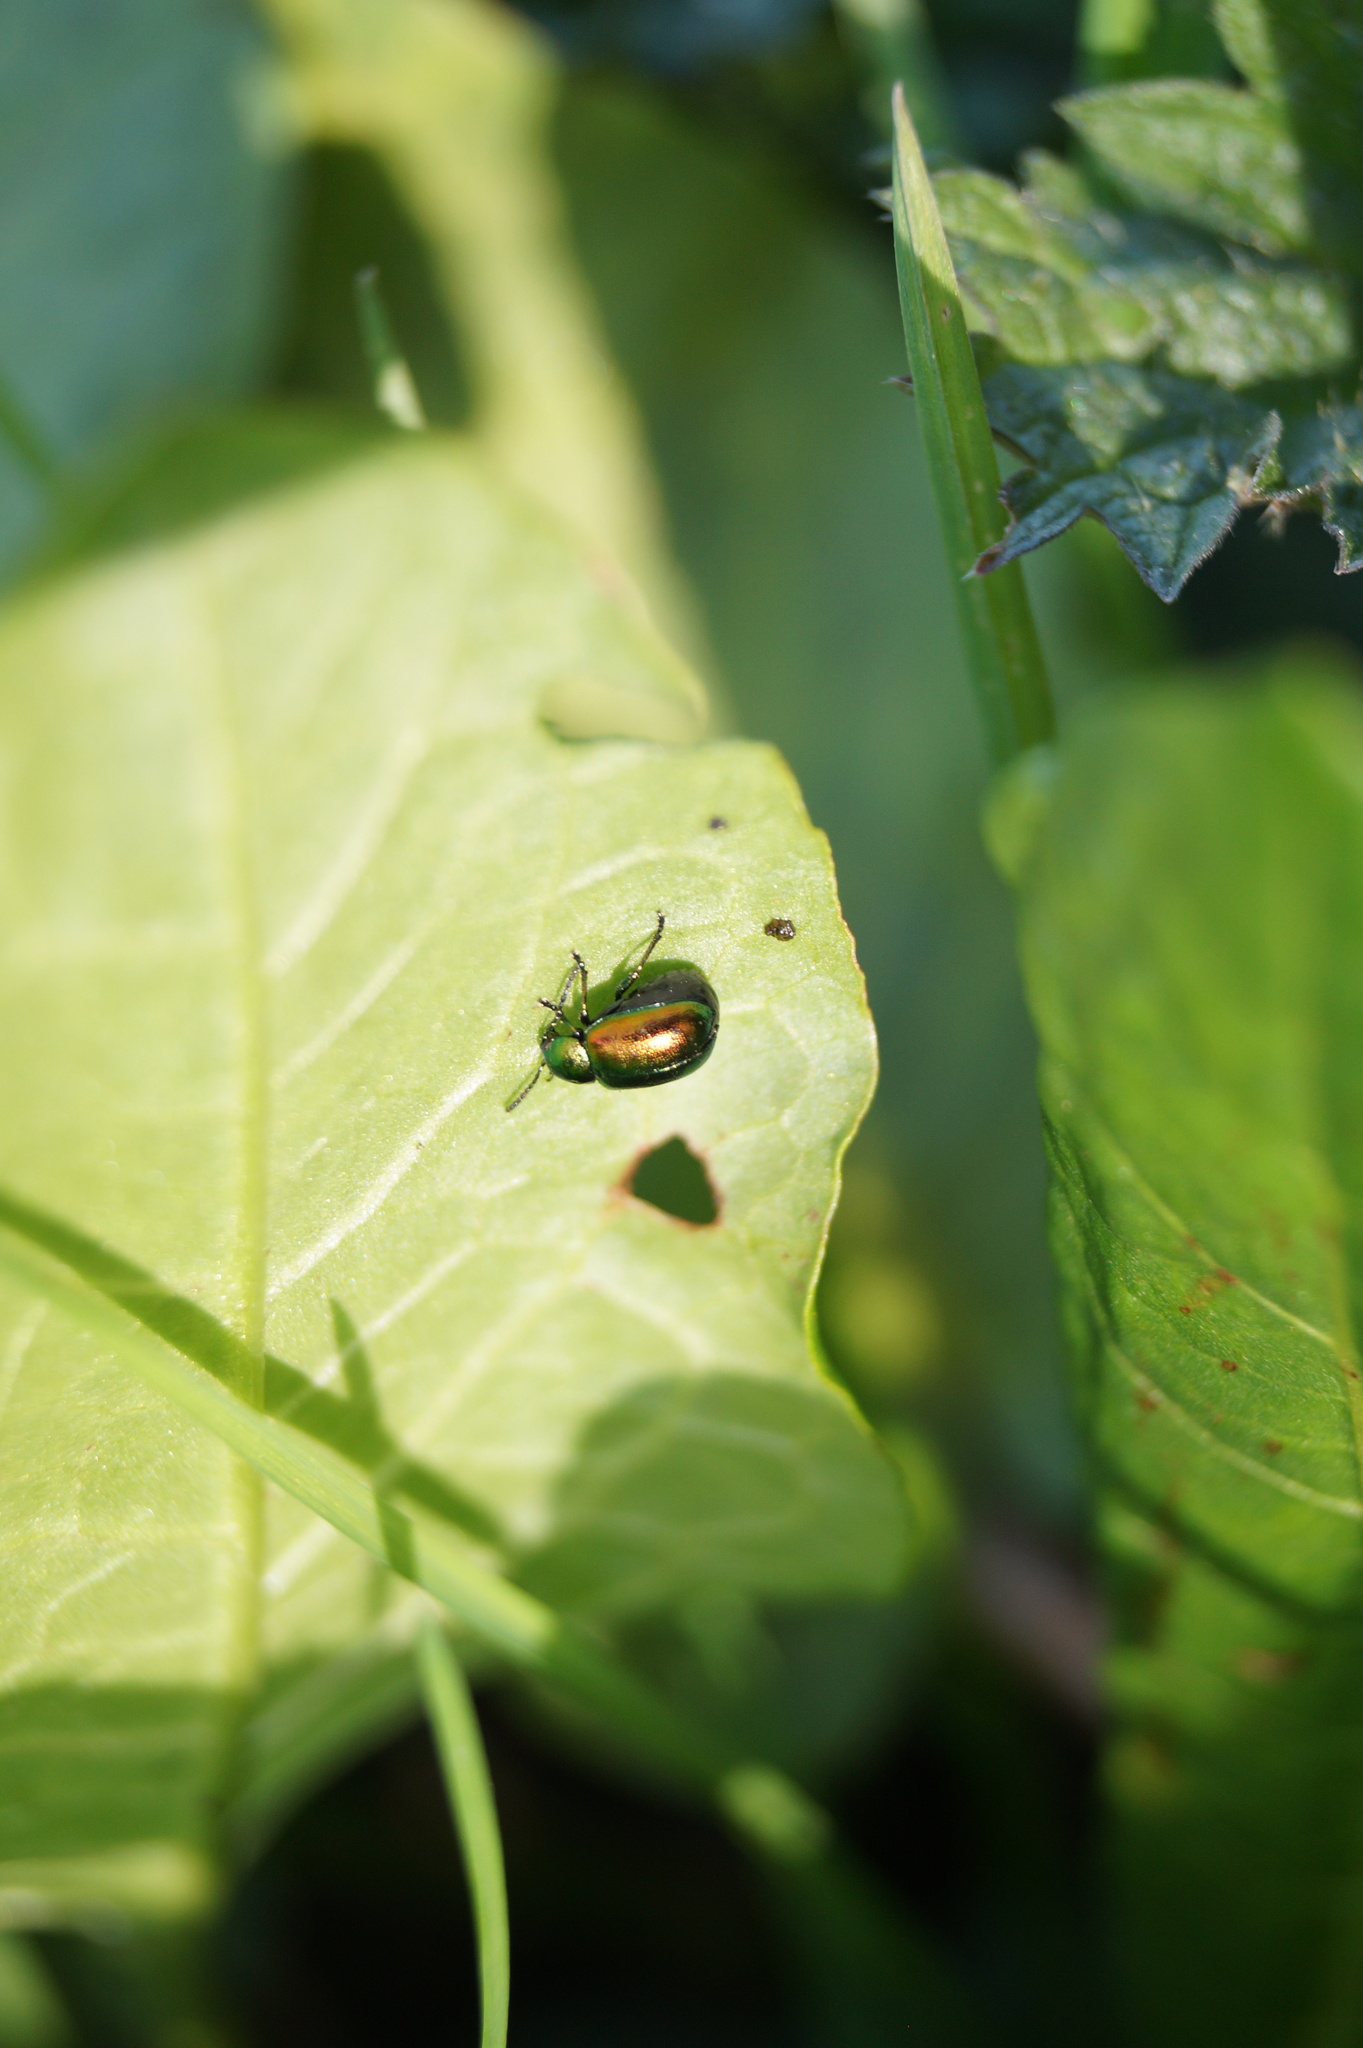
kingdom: Animalia
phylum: Arthropoda
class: Insecta
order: Coleoptera
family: Chrysomelidae
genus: Gastrophysa
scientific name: Gastrophysa viridula
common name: Green dock beetle
